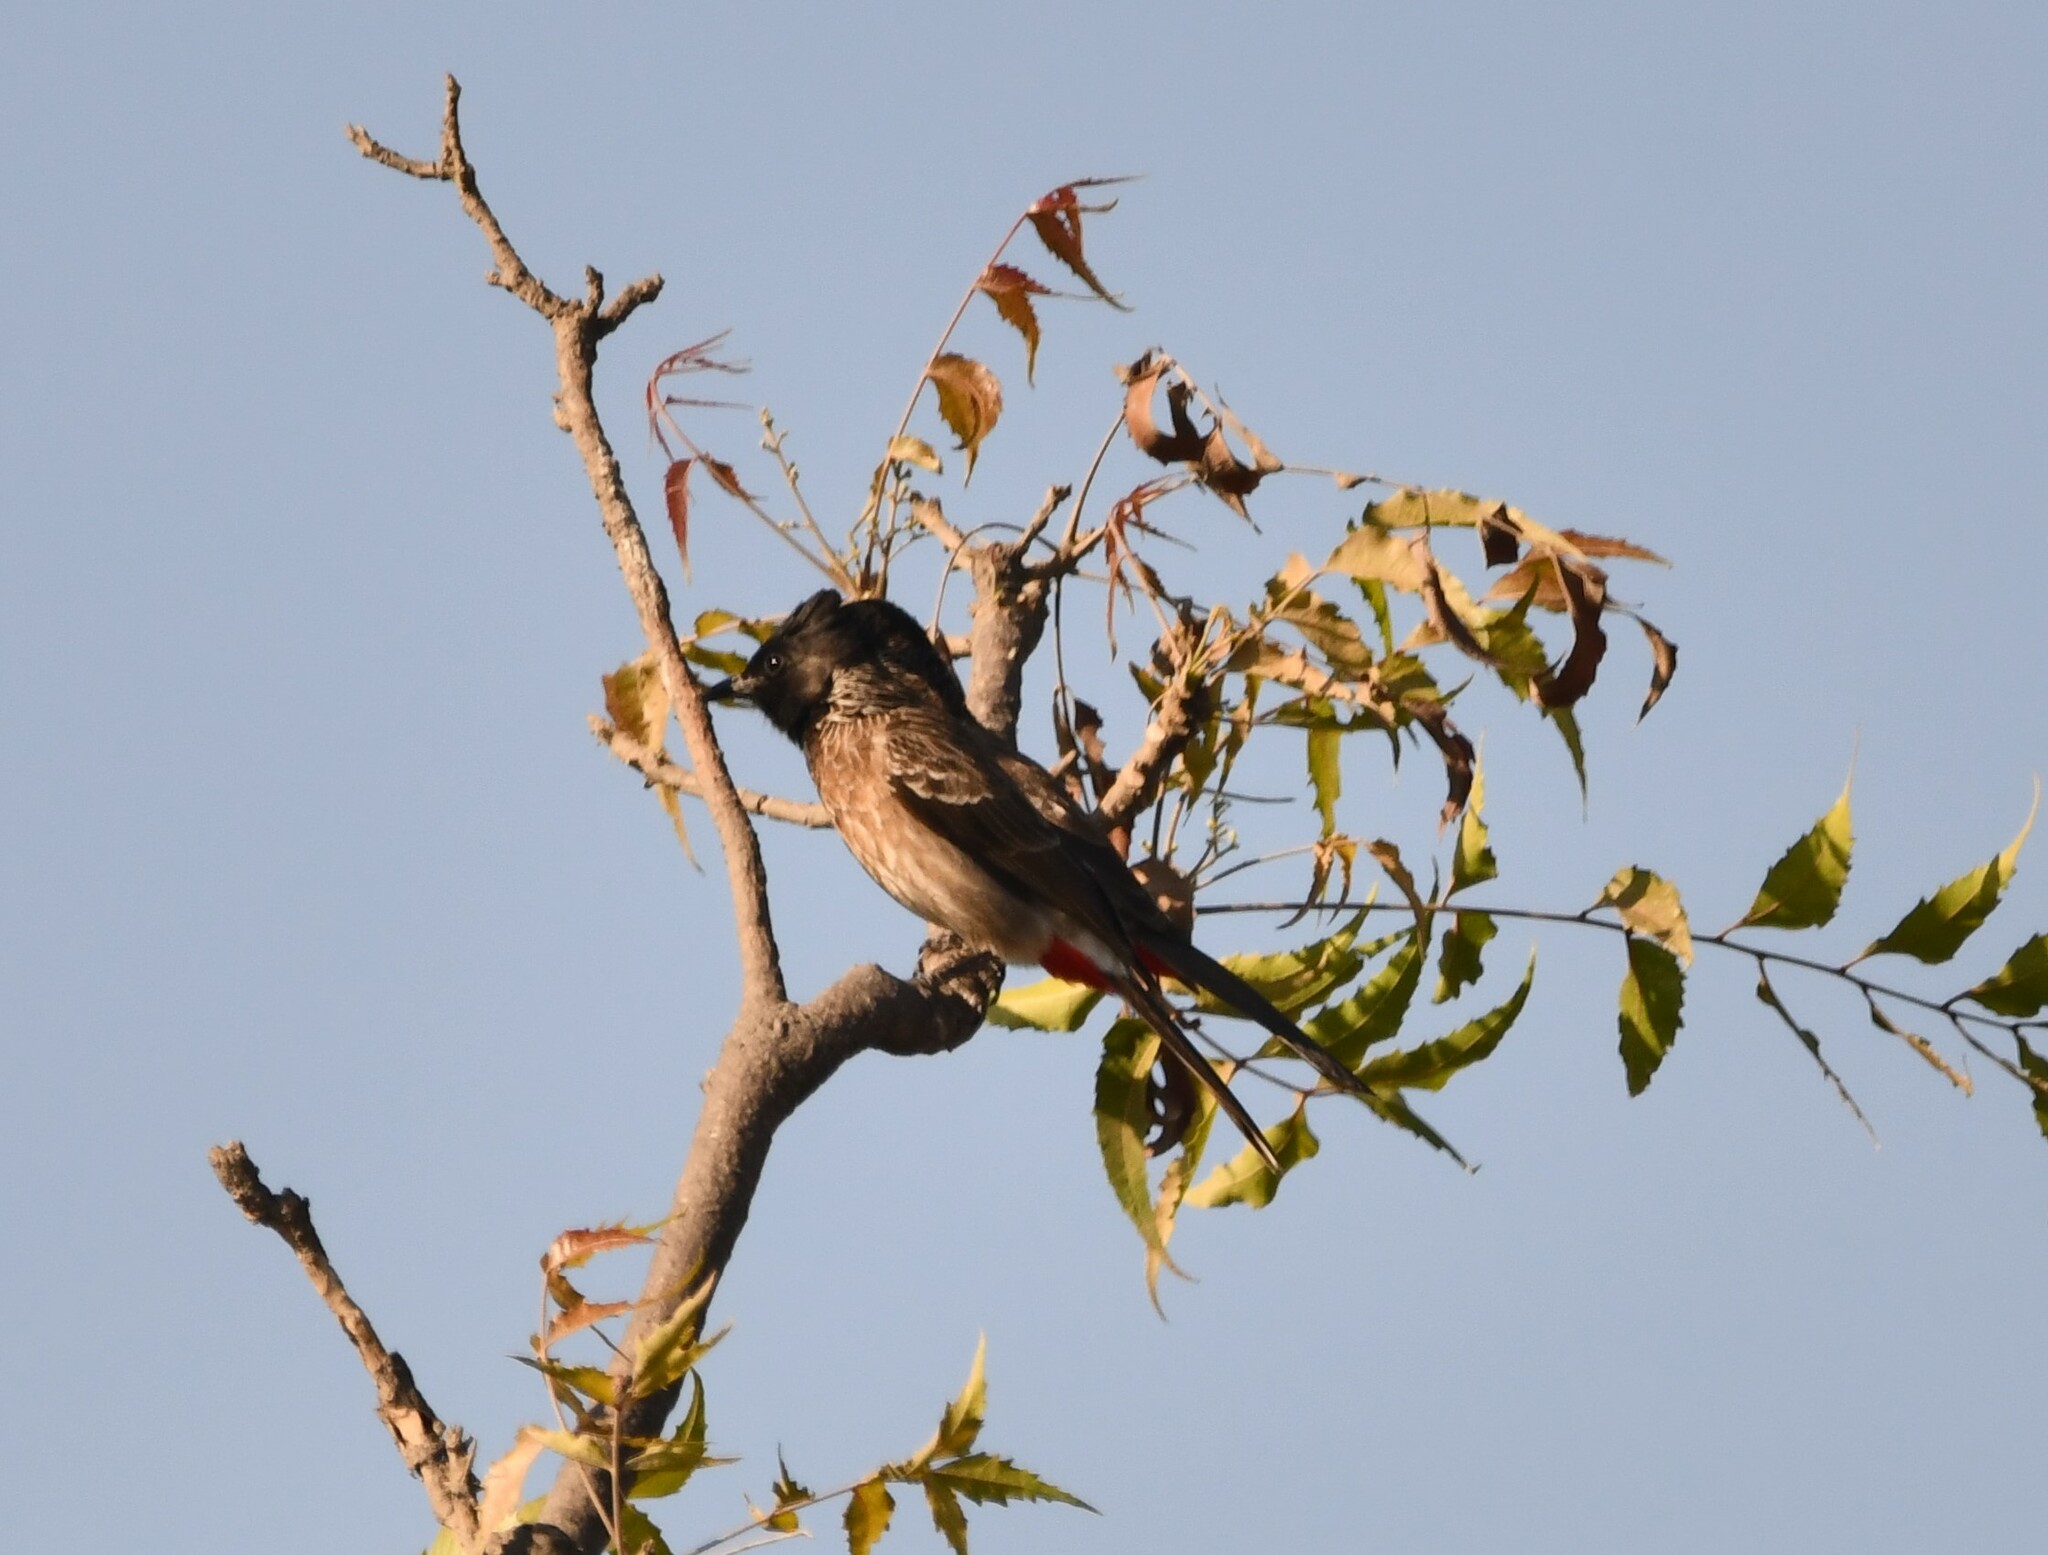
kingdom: Animalia
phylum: Chordata
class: Aves
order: Passeriformes
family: Pycnonotidae
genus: Pycnonotus
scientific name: Pycnonotus cafer
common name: Red-vented bulbul
